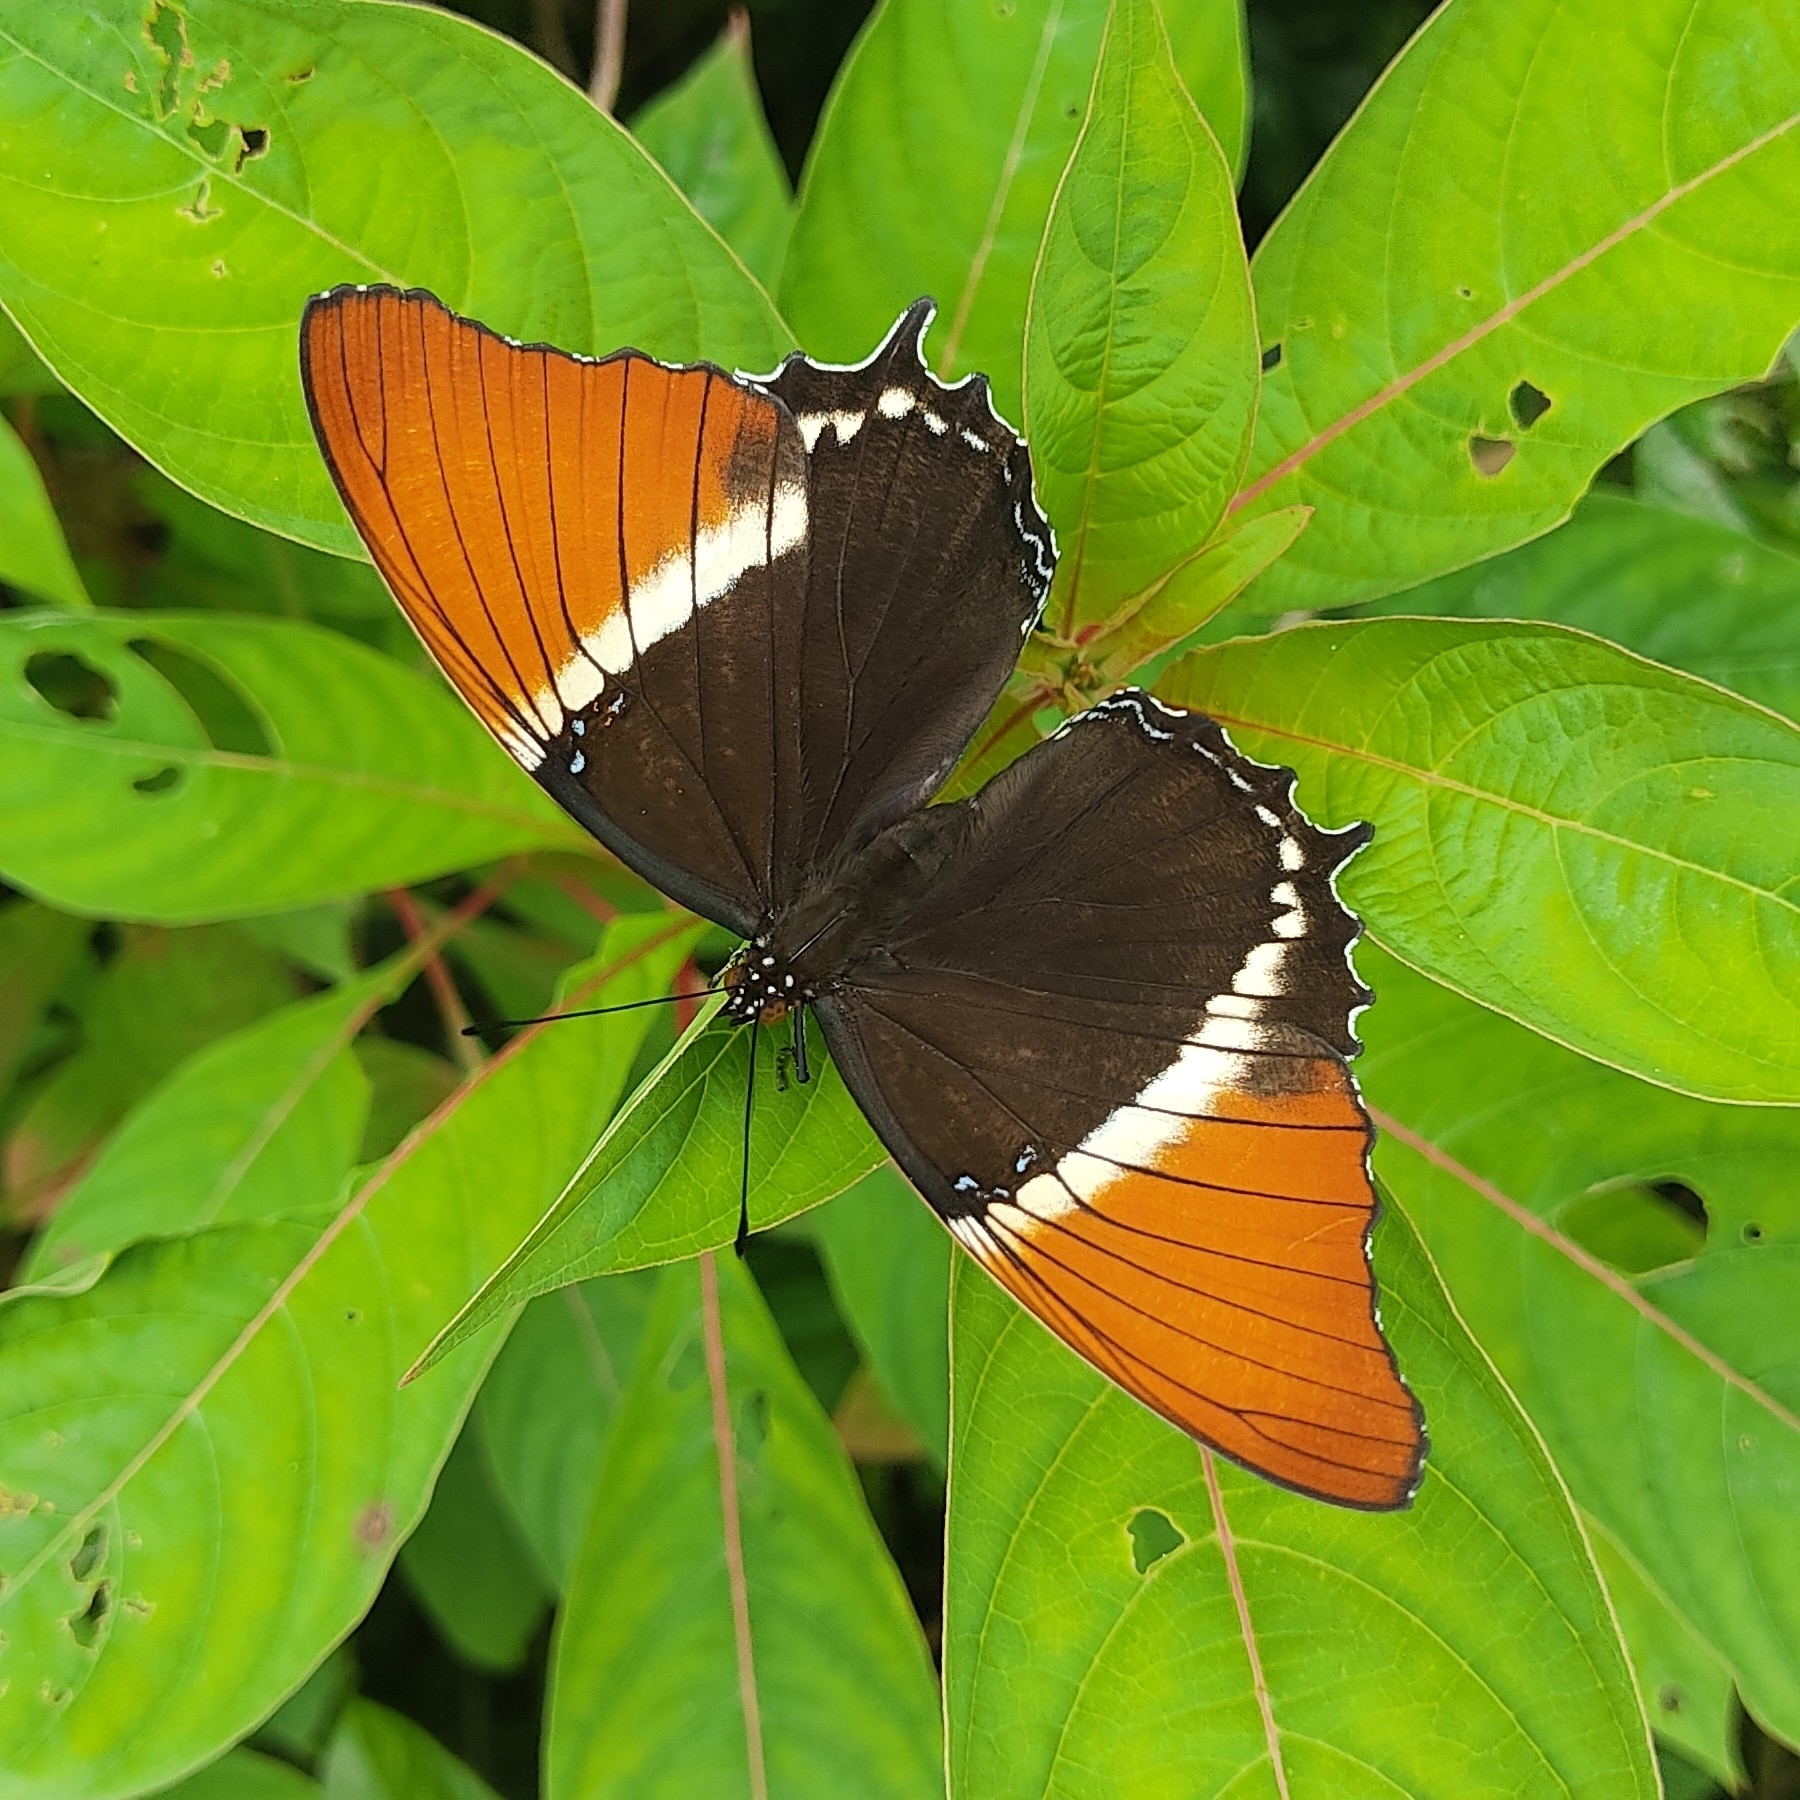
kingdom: Animalia
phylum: Arthropoda
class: Insecta
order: Lepidoptera
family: Nymphalidae
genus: Siproeta
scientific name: Siproeta epaphus
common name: Rusty-tipped page
